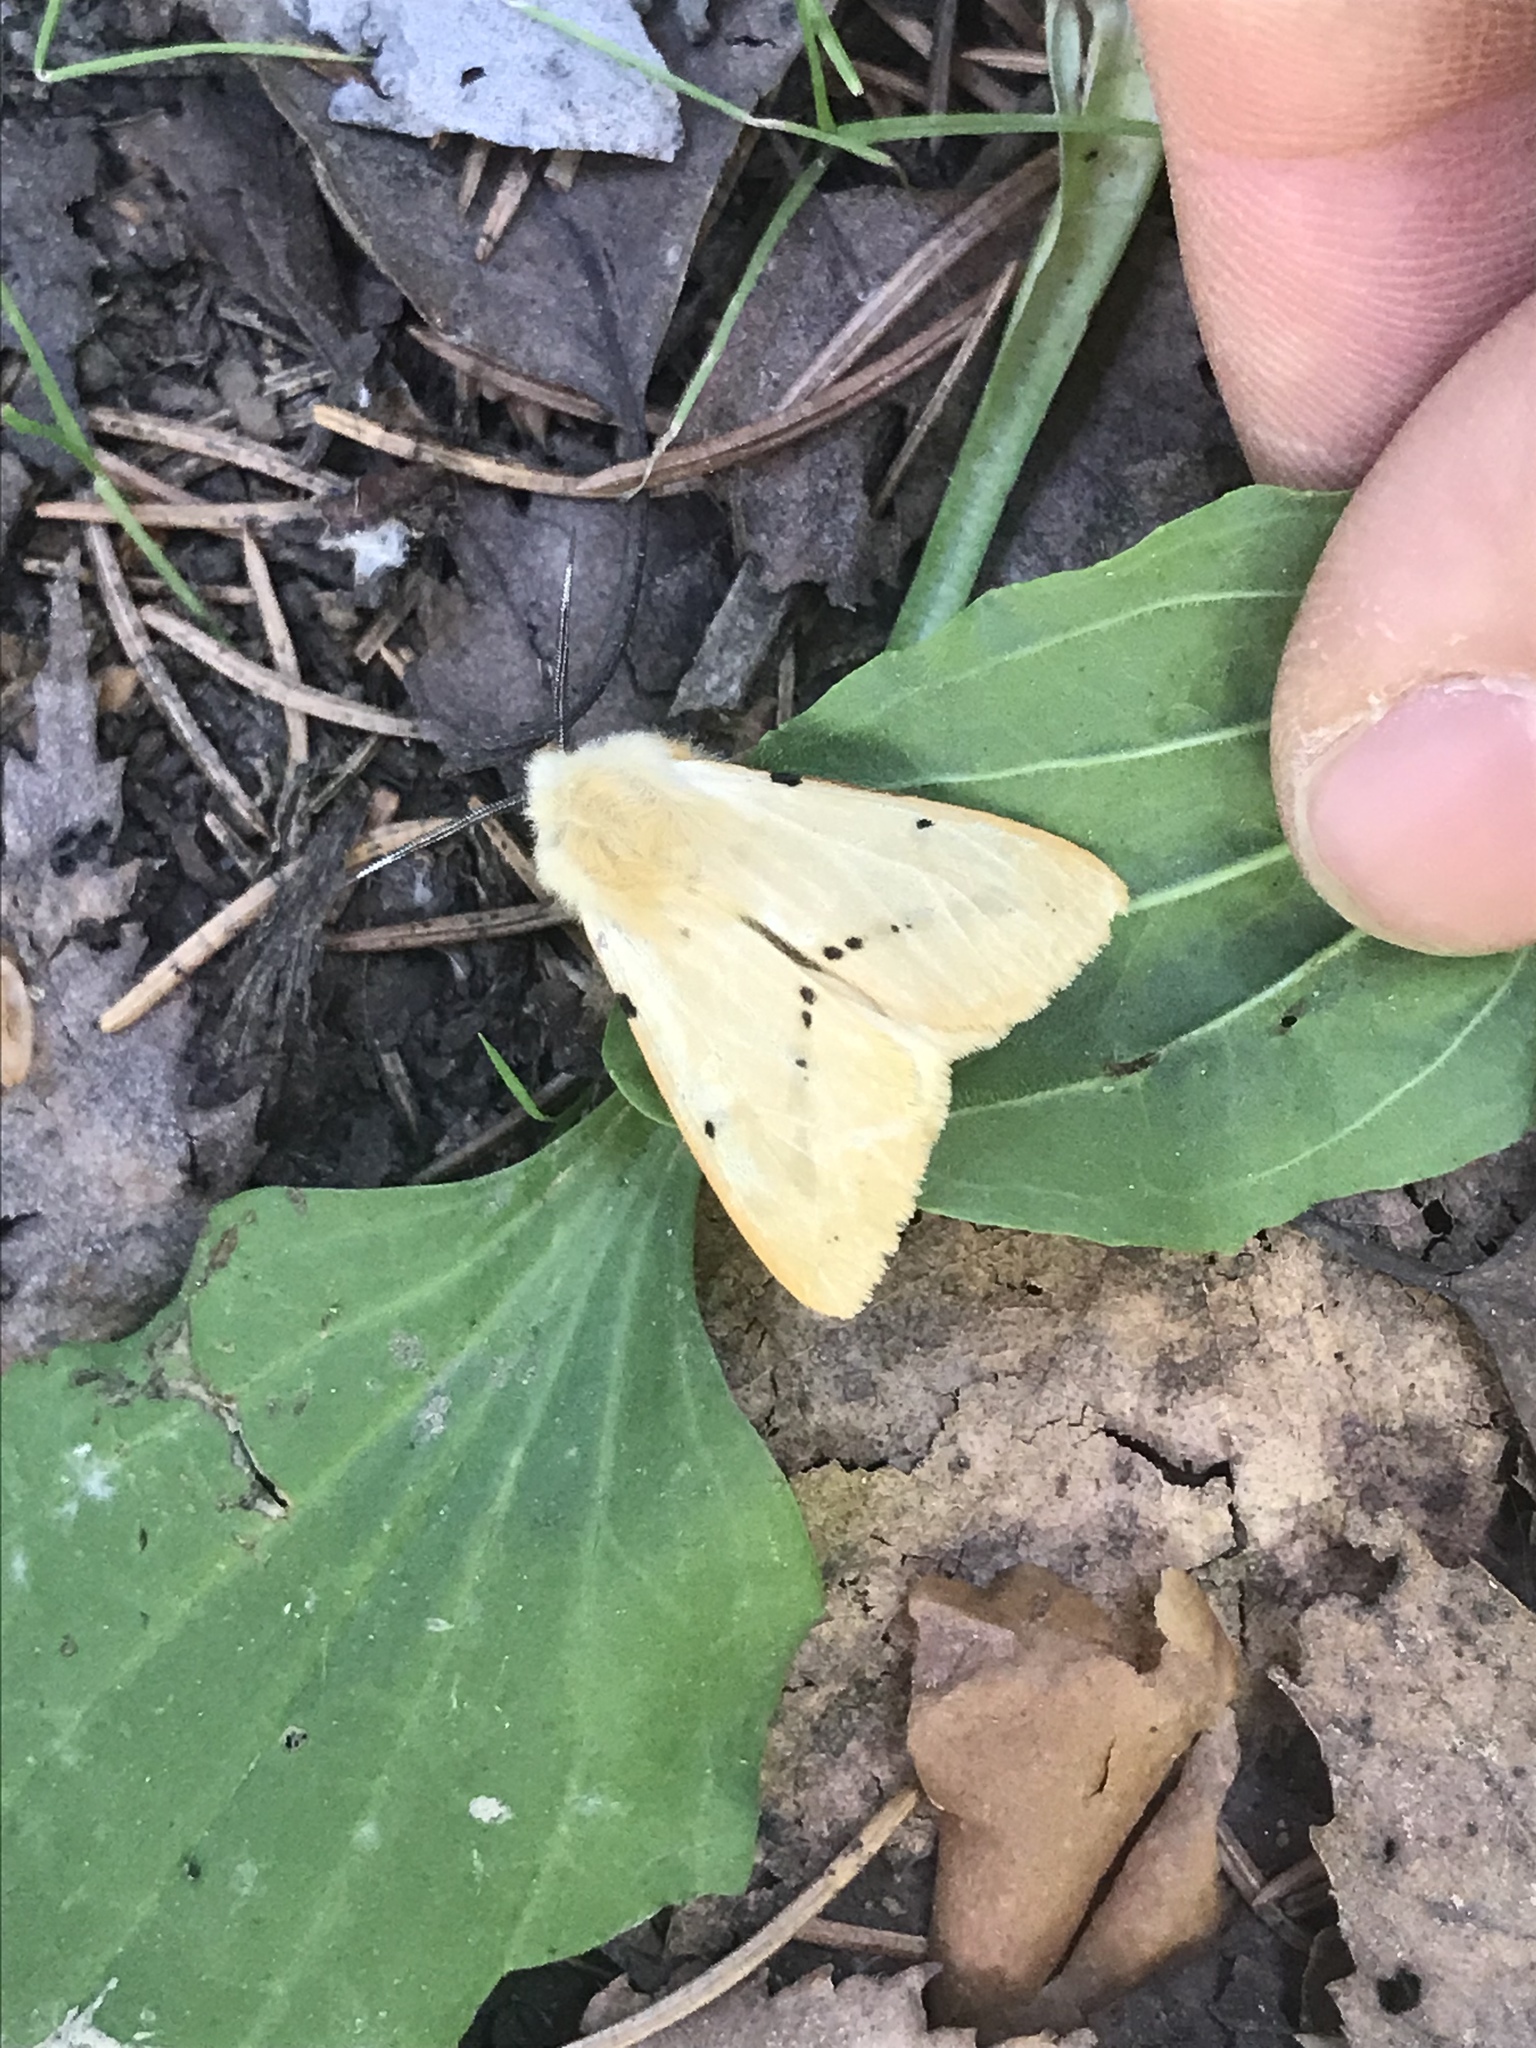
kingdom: Animalia
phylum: Arthropoda
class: Insecta
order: Lepidoptera
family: Erebidae
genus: Spilarctia
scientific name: Spilarctia lutea
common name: Buff ermine
